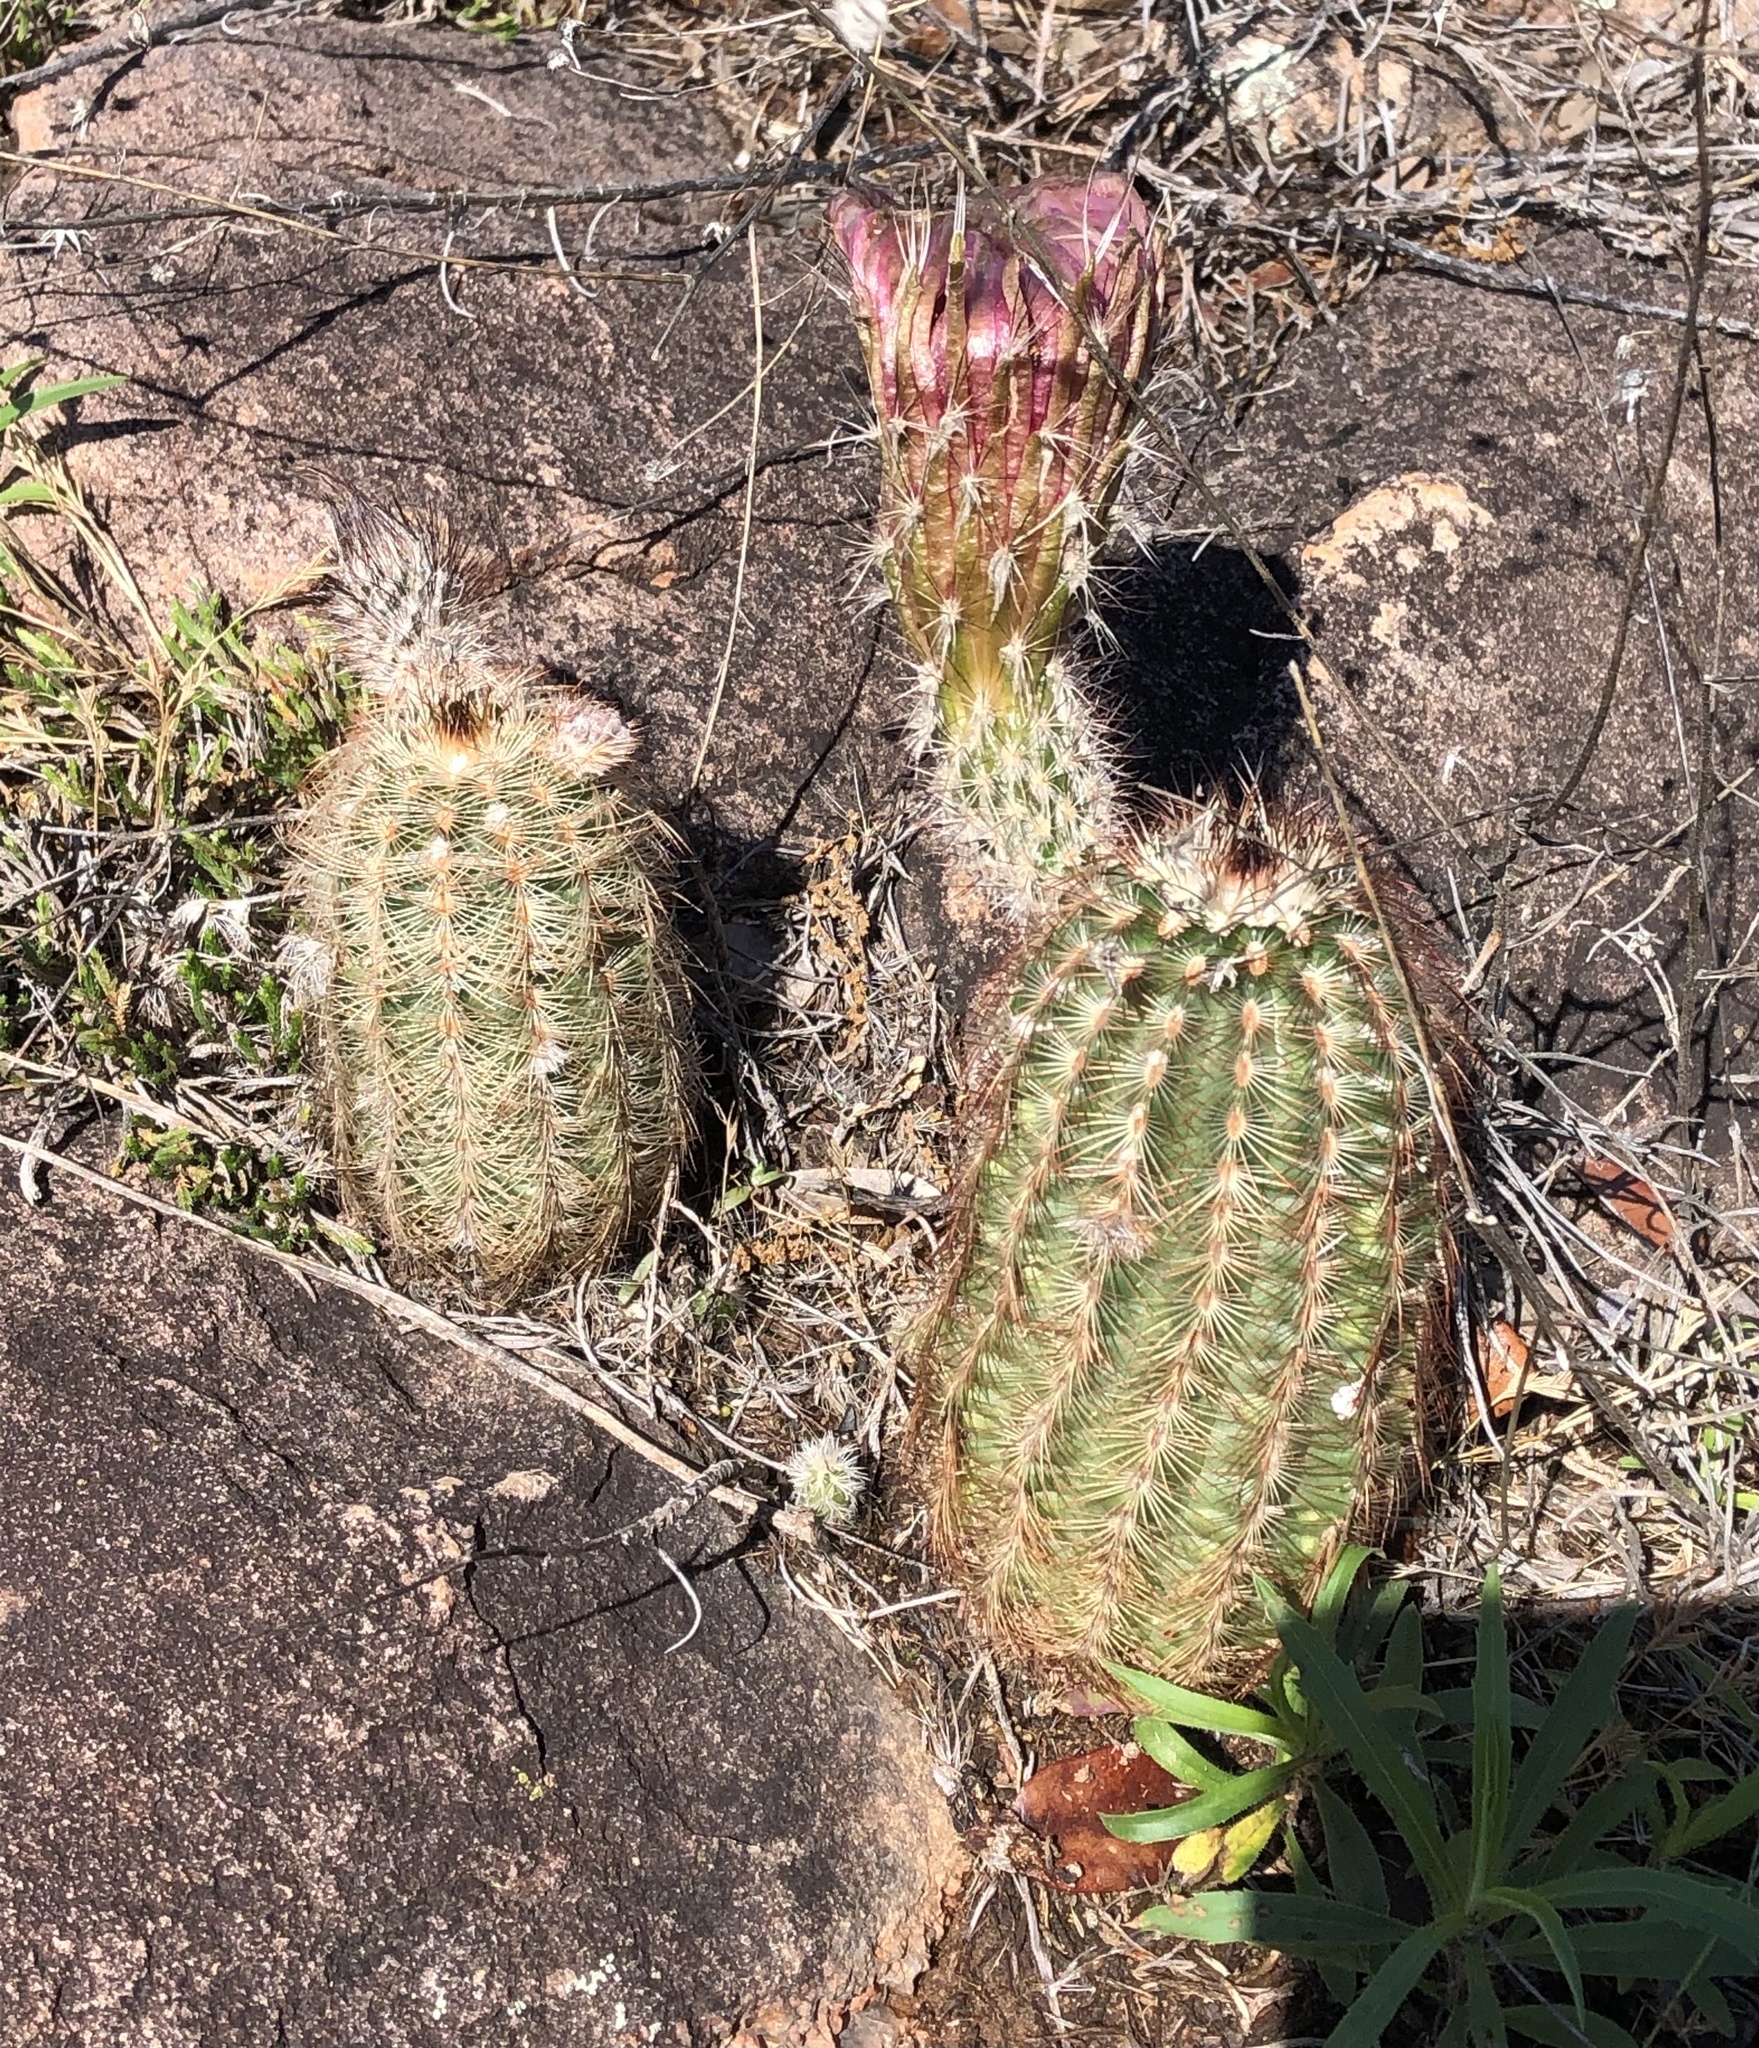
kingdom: Plantae
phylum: Tracheophyta
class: Magnoliopsida
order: Caryophyllales
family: Cactaceae
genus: Echinocereus
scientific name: Echinocereus reichenbachii
